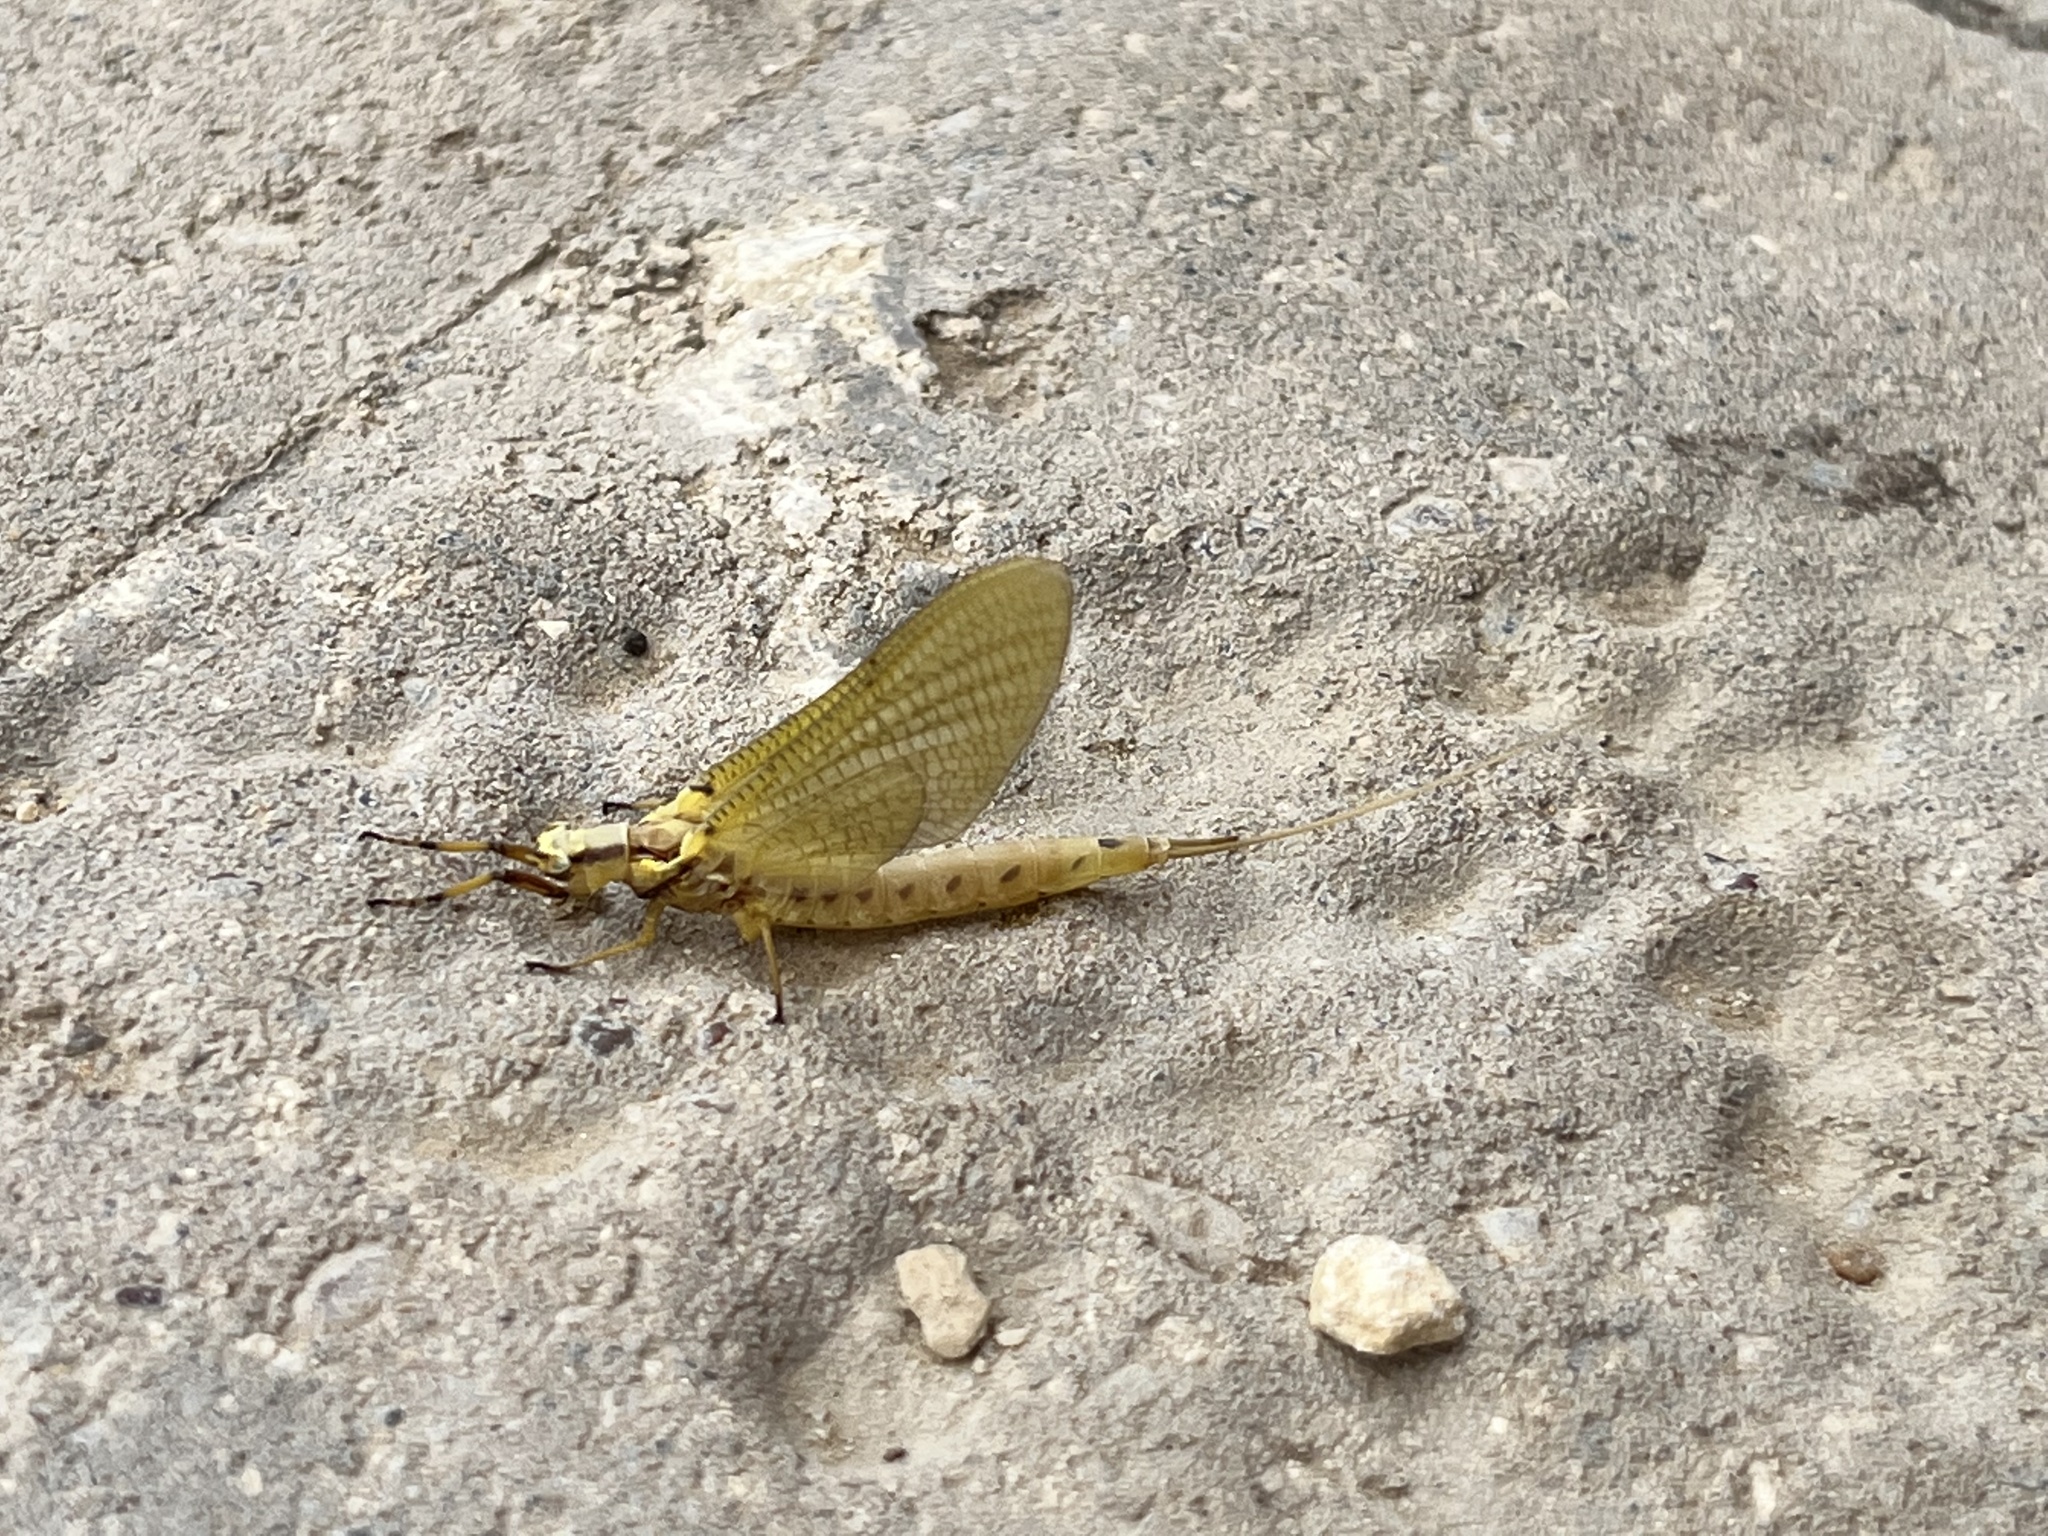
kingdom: Animalia
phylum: Arthropoda
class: Insecta
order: Ephemeroptera
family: Ephemeridae
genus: Hexagenia
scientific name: Hexagenia limbata
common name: Giant mayfly
